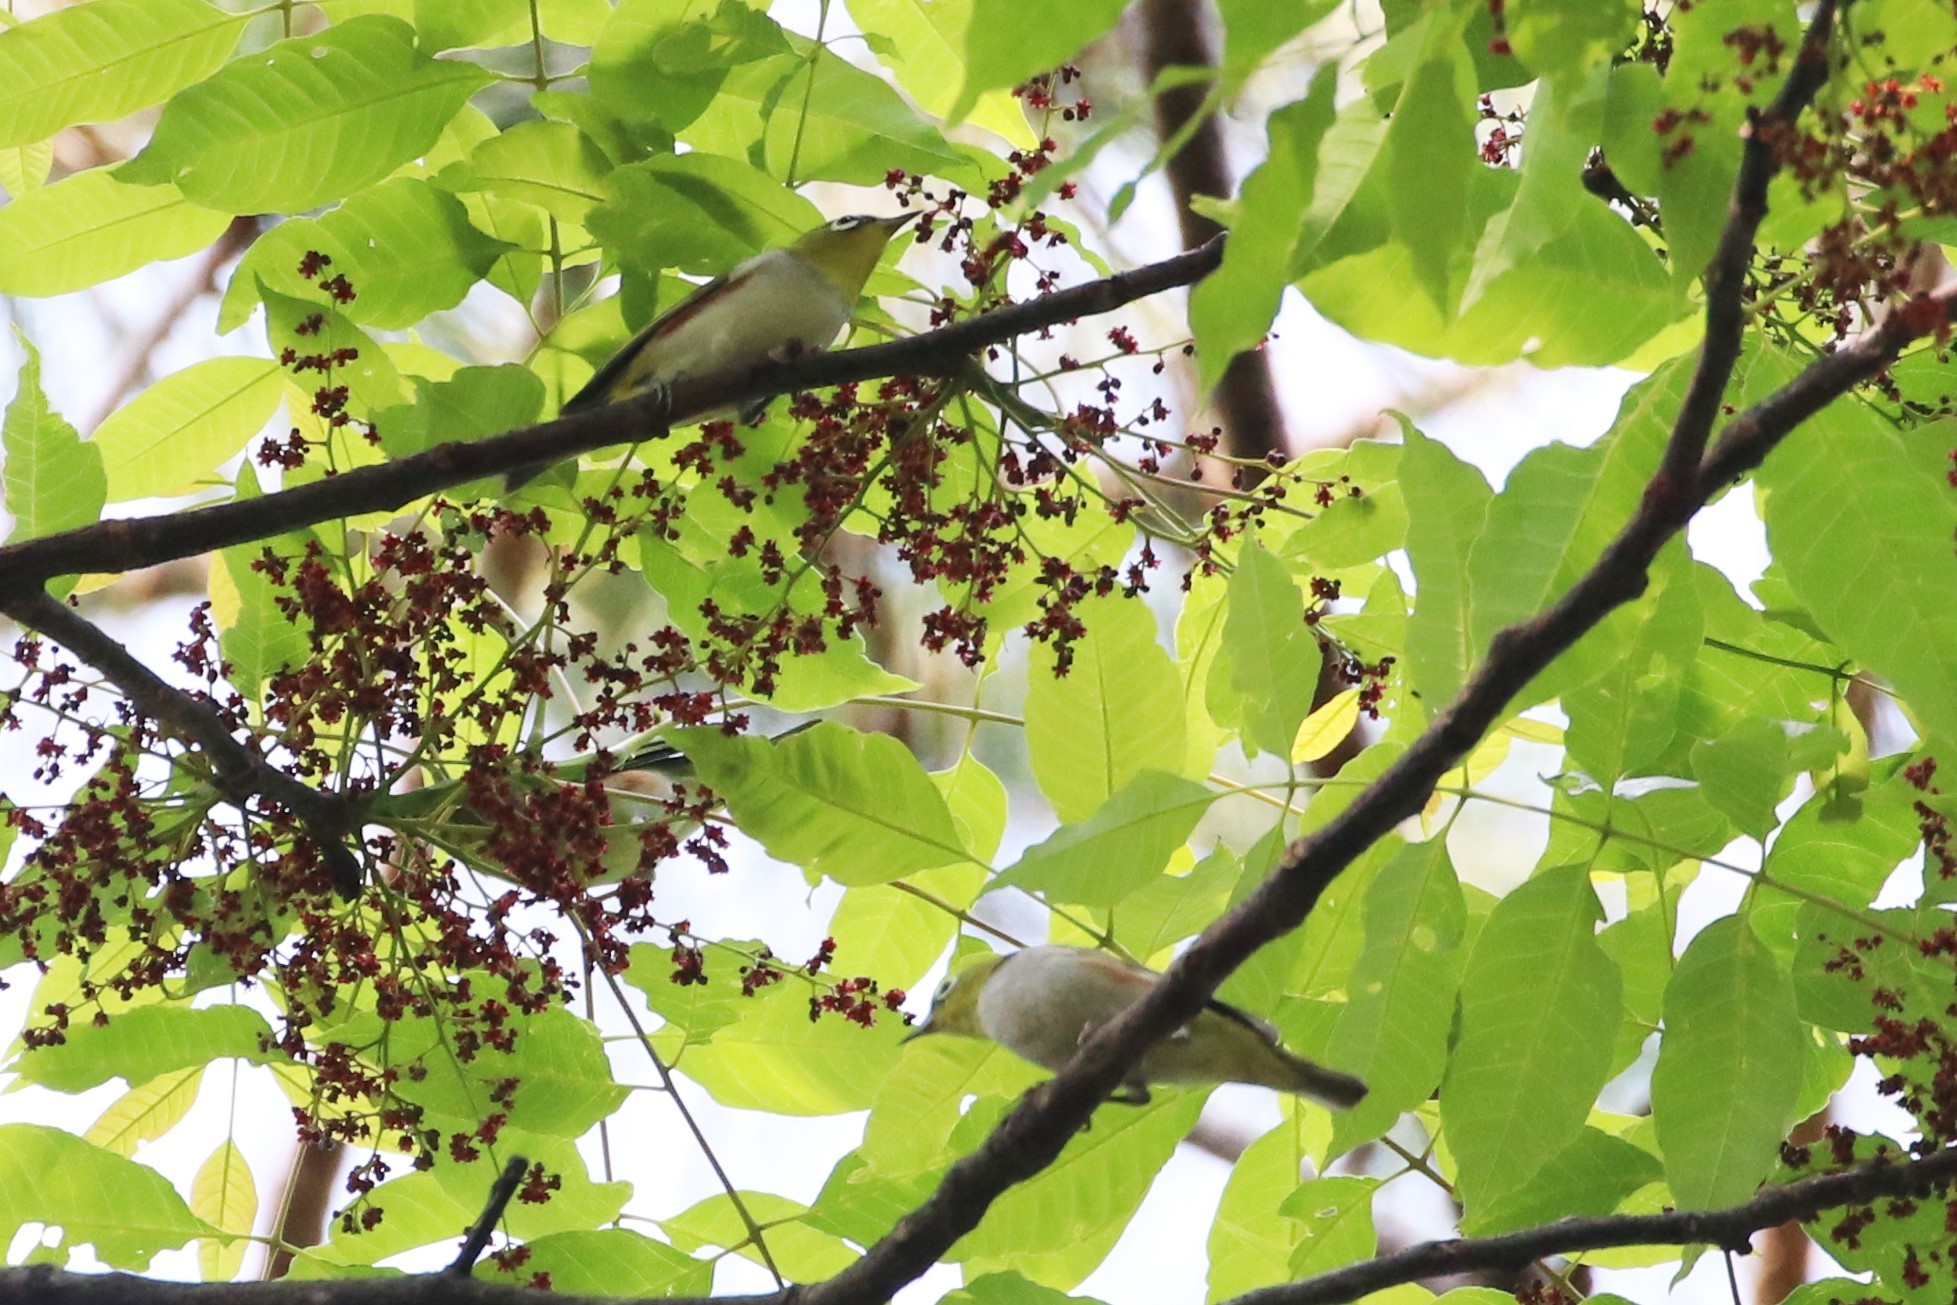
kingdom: Animalia
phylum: Chordata
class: Aves
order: Passeriformes
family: Zosteropidae
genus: Zosterops
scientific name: Zosterops erythropleurus
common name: Chestnut-flanked white-eye
